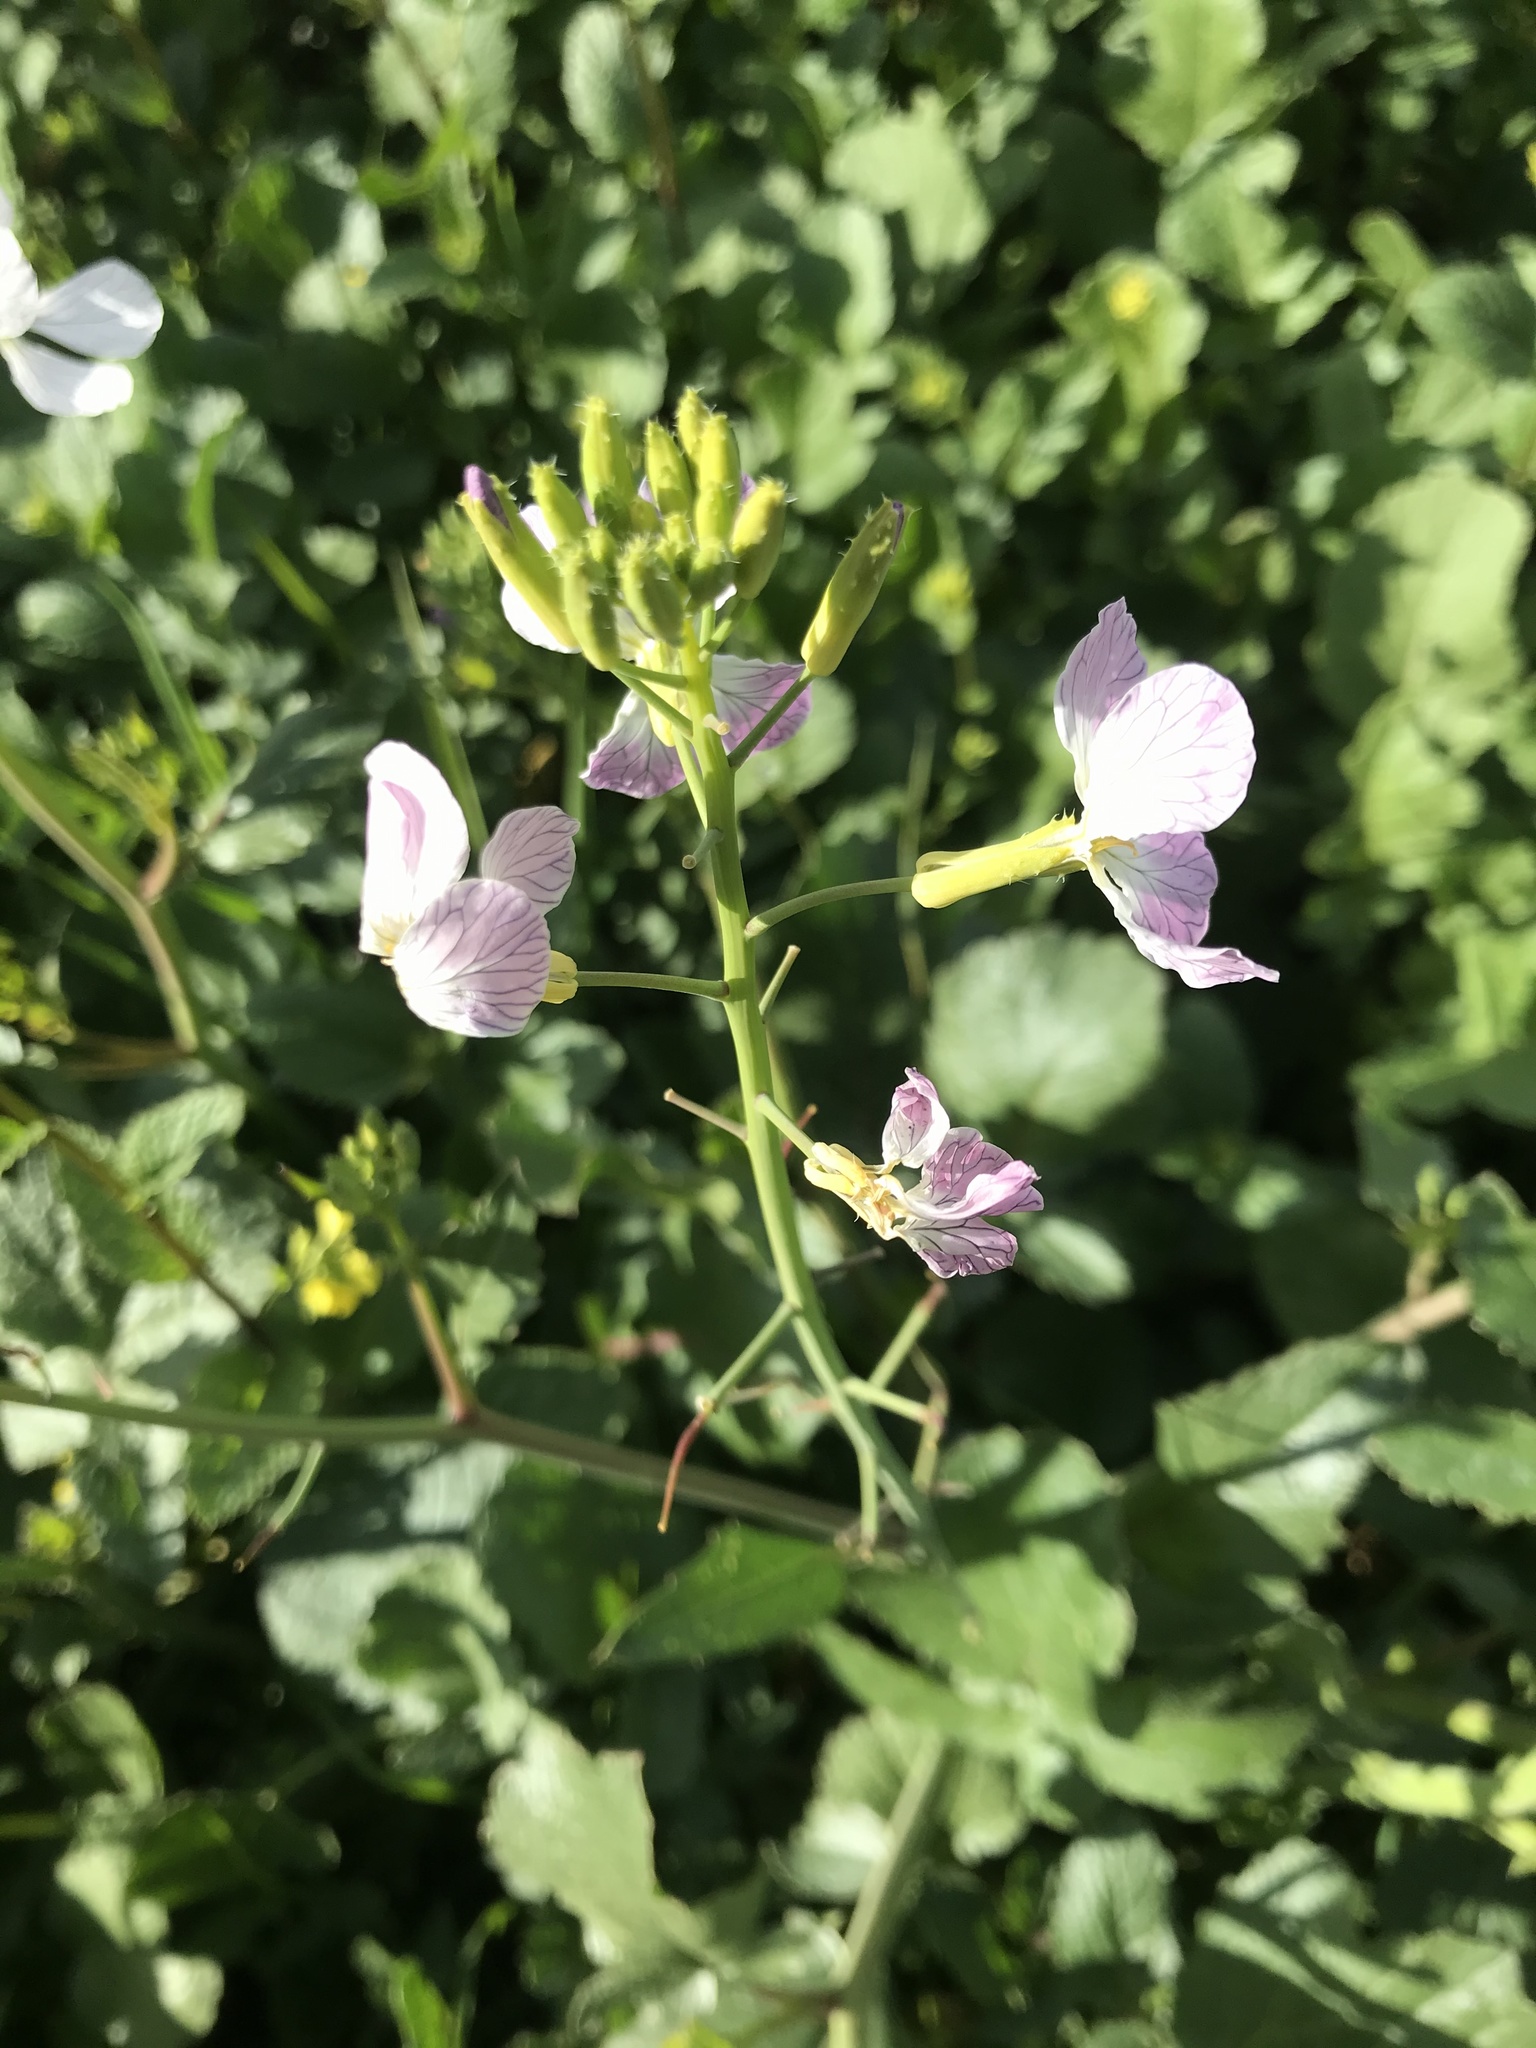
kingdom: Plantae
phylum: Tracheophyta
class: Magnoliopsida
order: Brassicales
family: Brassicaceae
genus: Raphanus
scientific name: Raphanus sativus
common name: Cultivated radish
